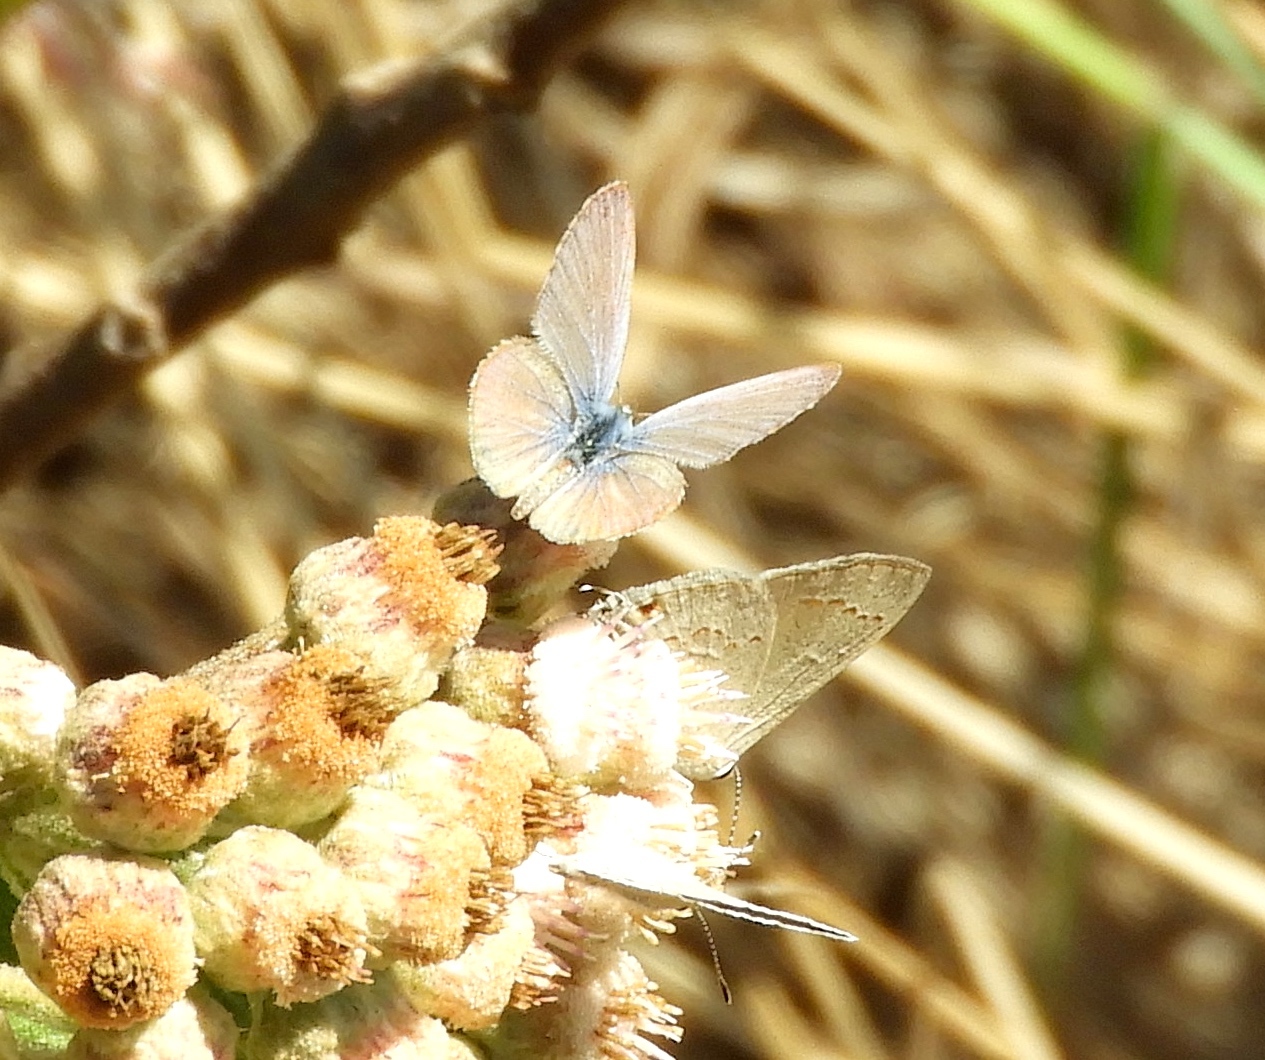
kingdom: Animalia
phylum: Arthropoda
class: Insecta
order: Lepidoptera
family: Lycaenidae
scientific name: Lycaenidae
